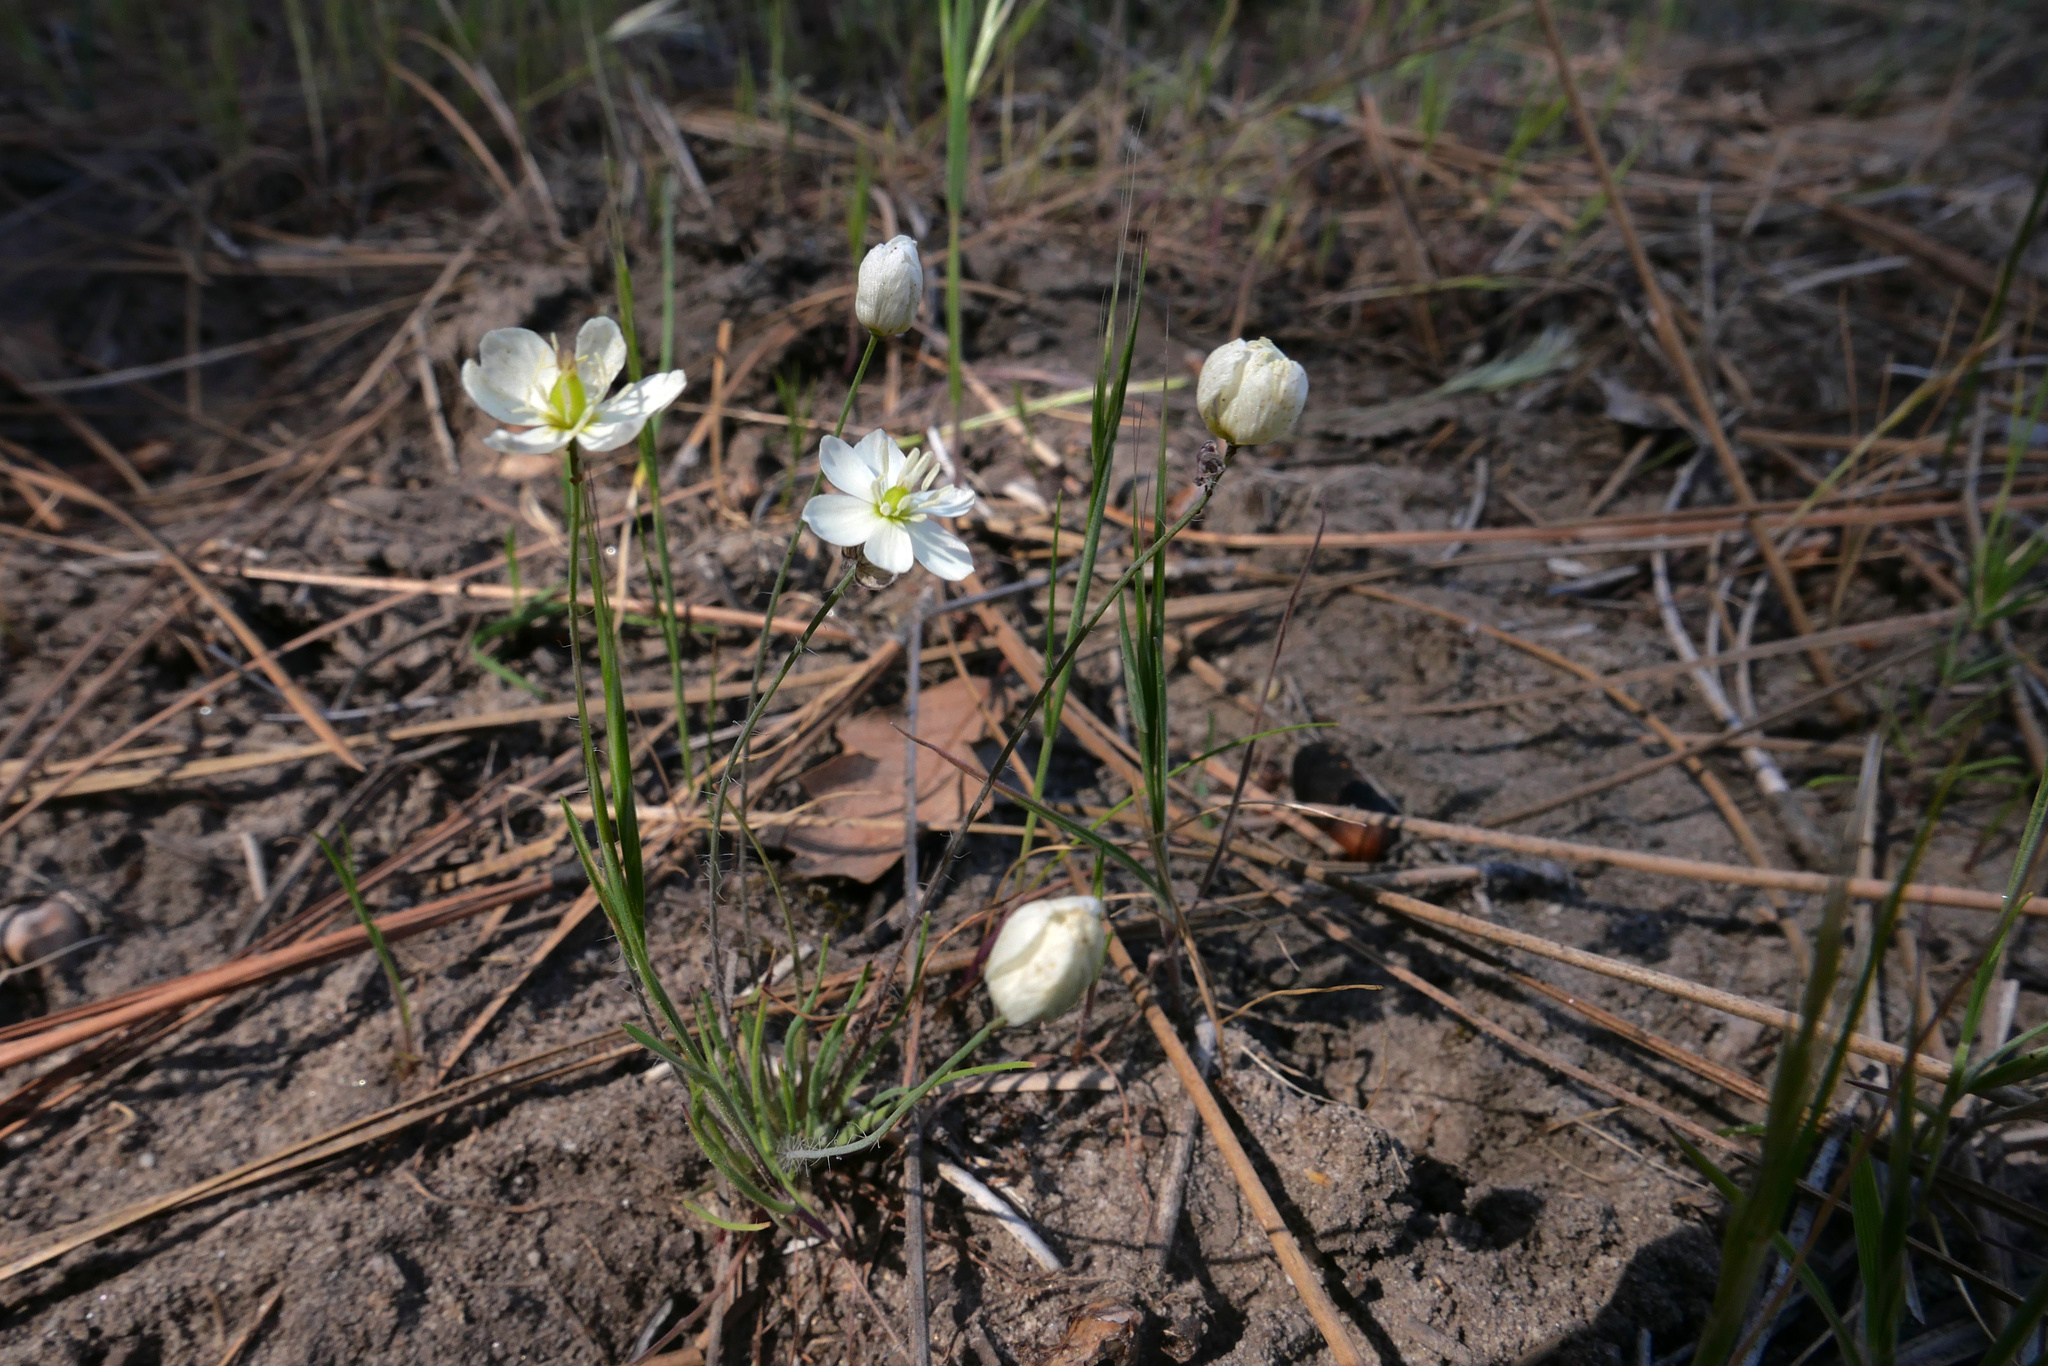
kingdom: Plantae
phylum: Tracheophyta
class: Magnoliopsida
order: Ranunculales
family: Papaveraceae
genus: Platystigma
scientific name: Platystigma lineare
